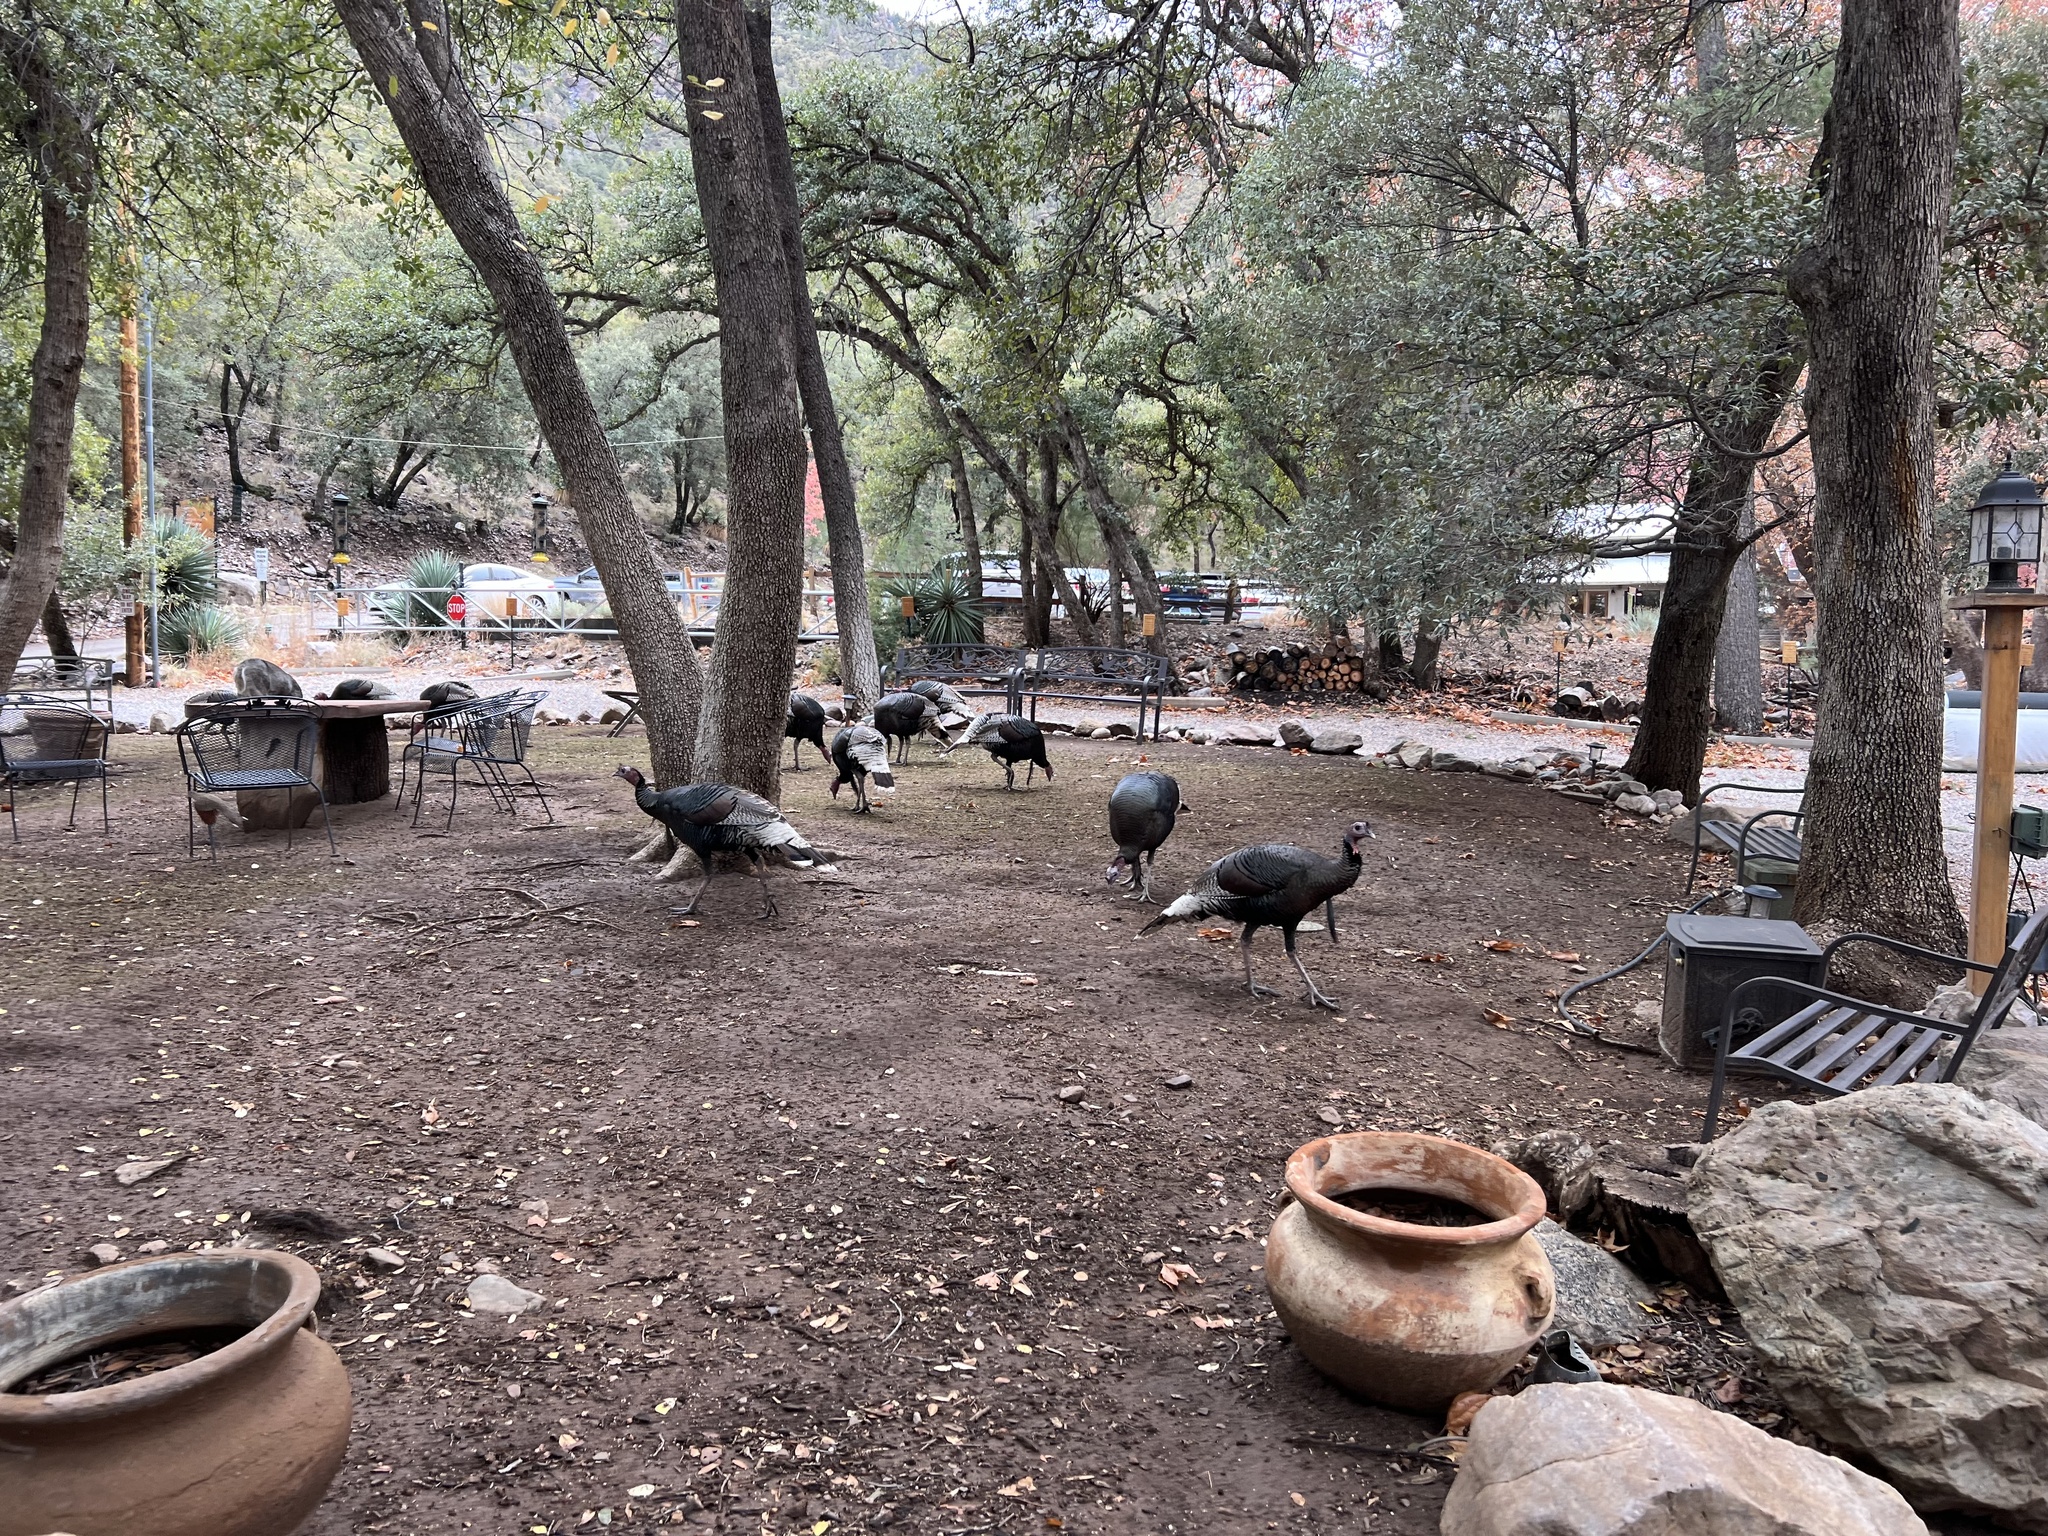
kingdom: Animalia
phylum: Chordata
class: Aves
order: Galliformes
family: Phasianidae
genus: Meleagris
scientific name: Meleagris gallopavo
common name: Wild turkey
